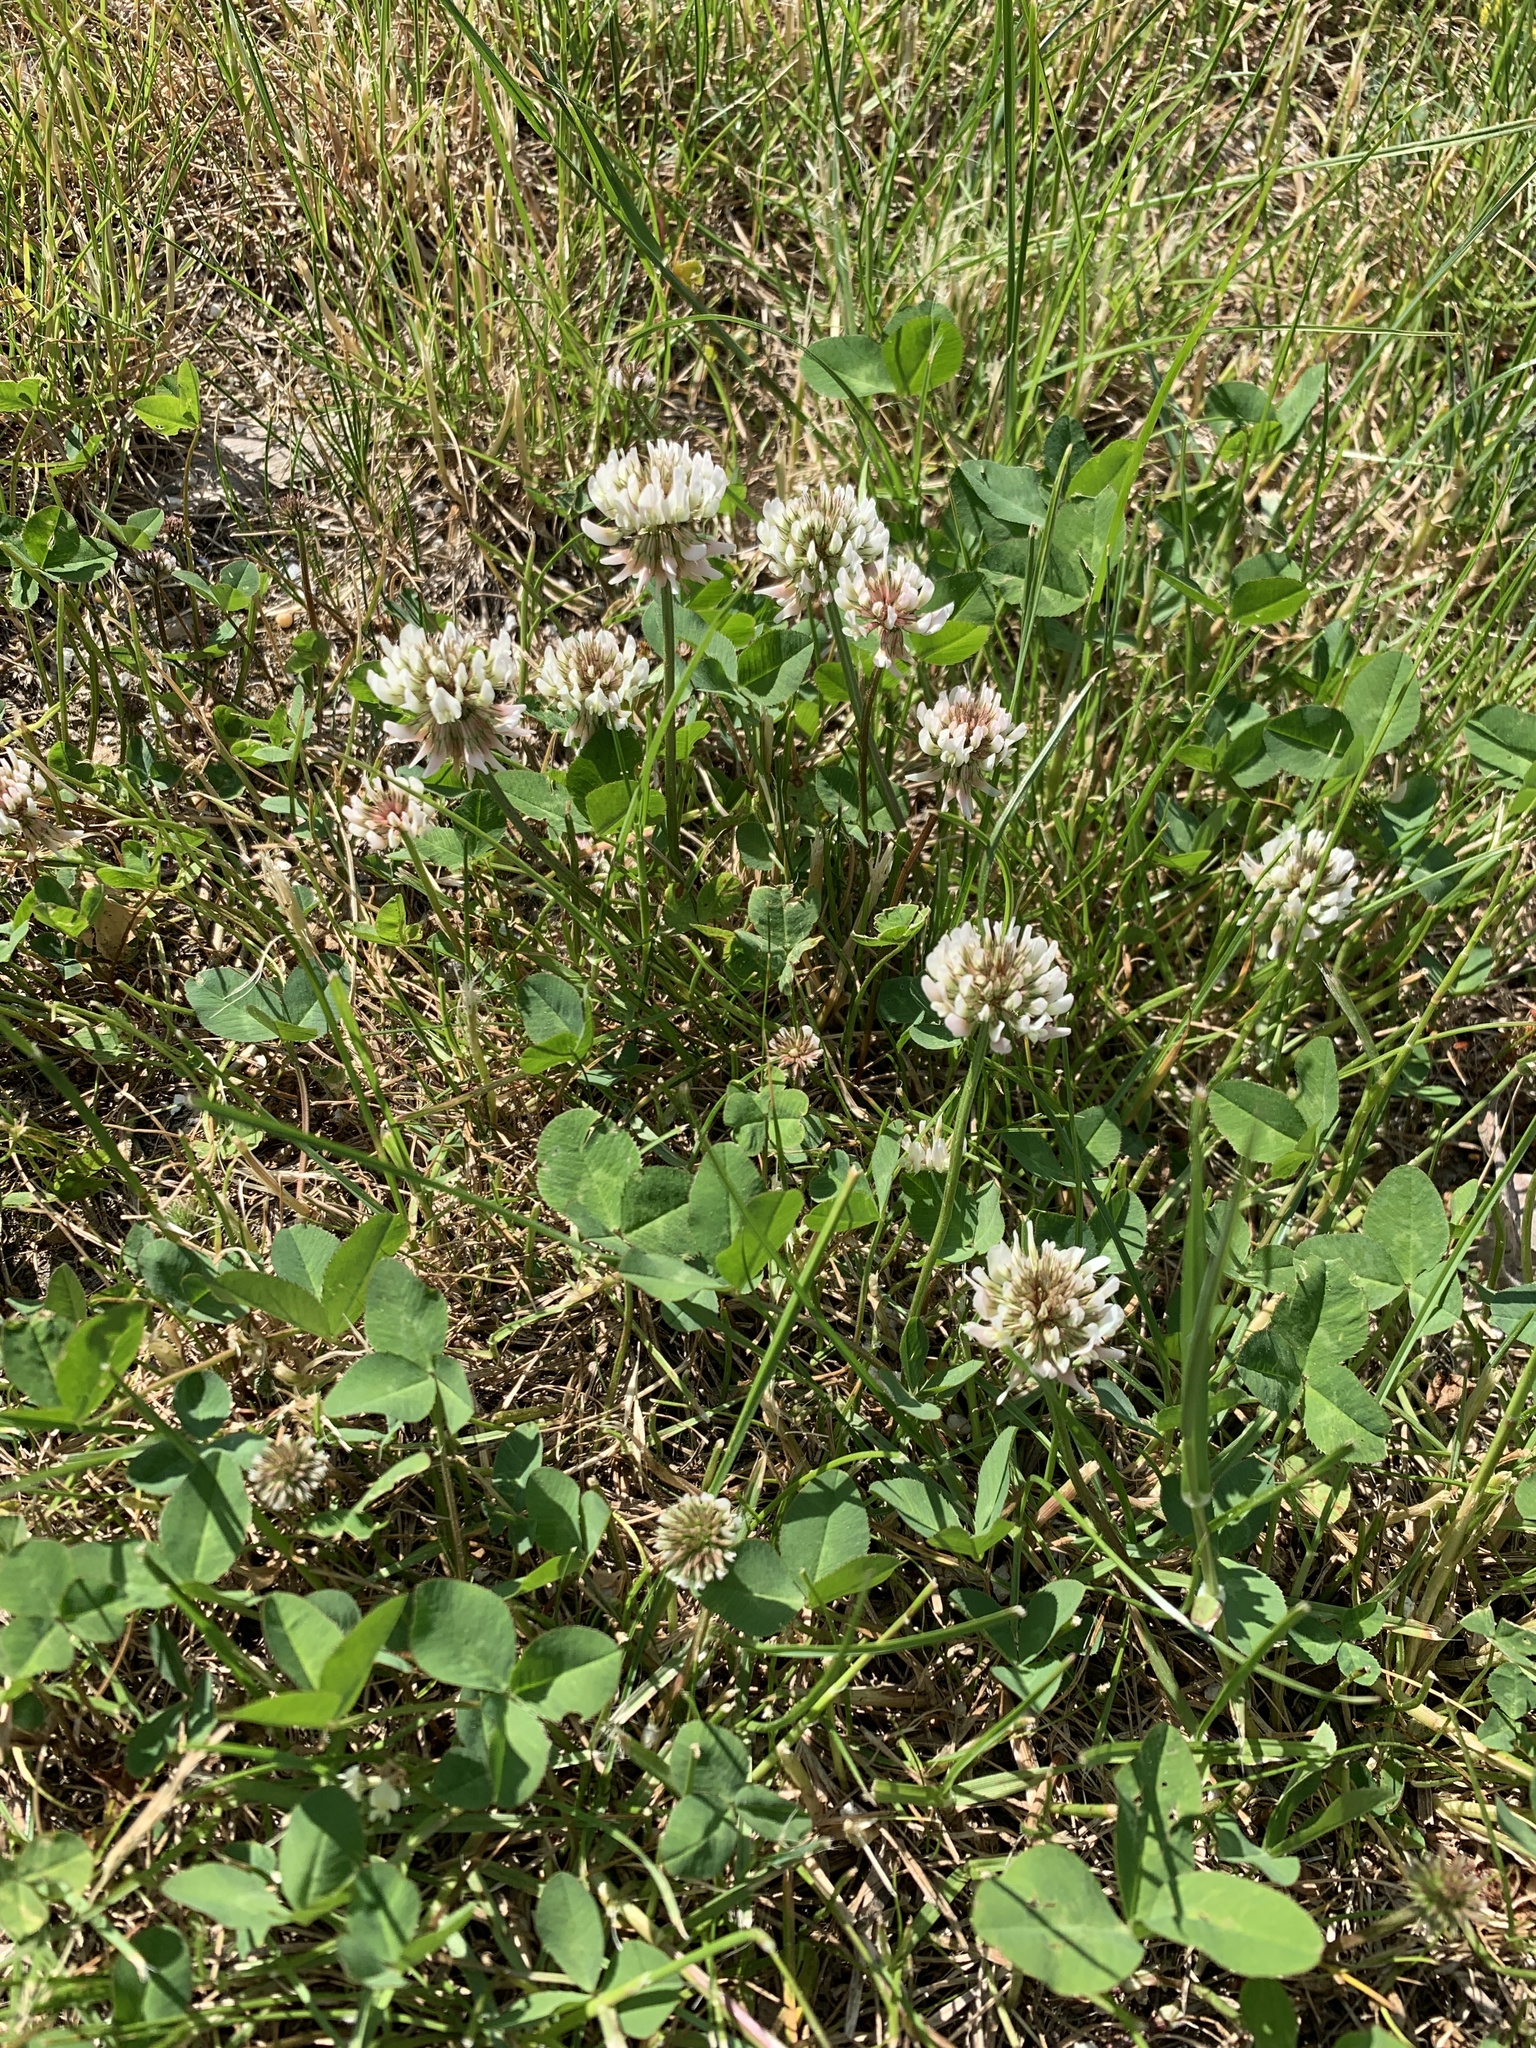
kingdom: Plantae
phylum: Tracheophyta
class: Magnoliopsida
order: Fabales
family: Fabaceae
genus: Trifolium
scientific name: Trifolium repens
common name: White clover
